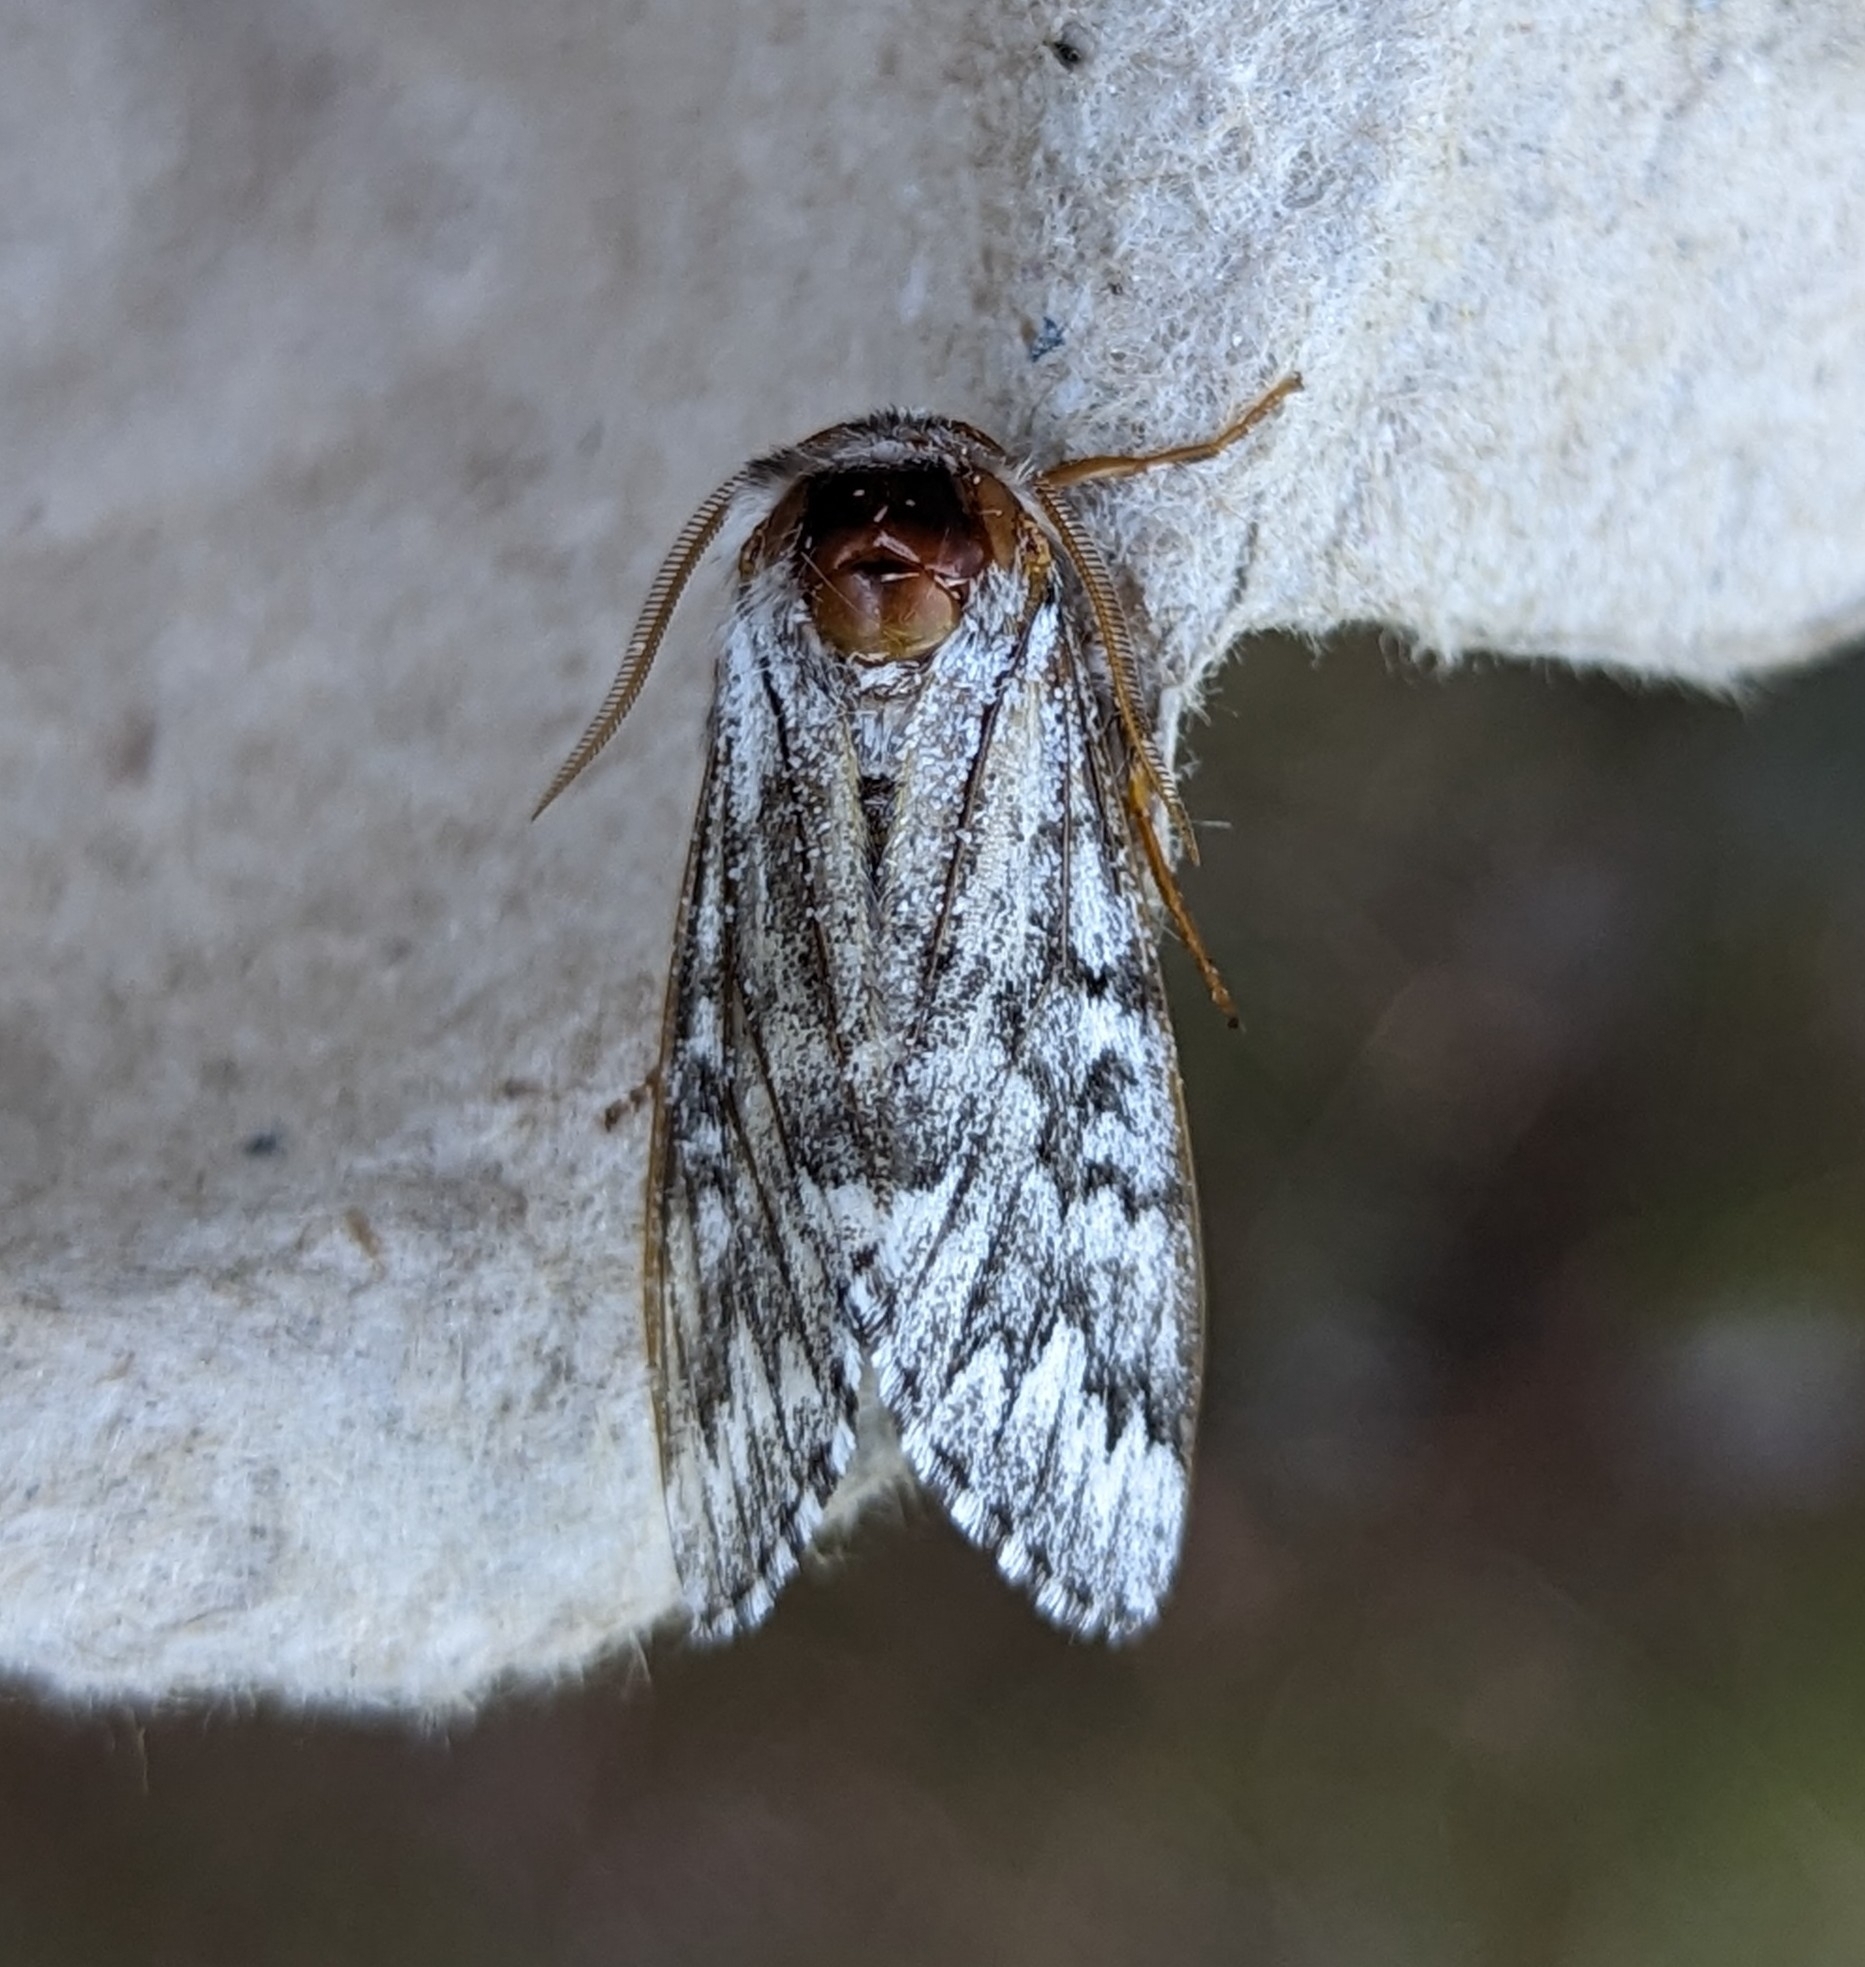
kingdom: Animalia
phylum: Arthropoda
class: Insecta
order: Lepidoptera
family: Noctuidae
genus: Panthea
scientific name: Panthea virginarius
